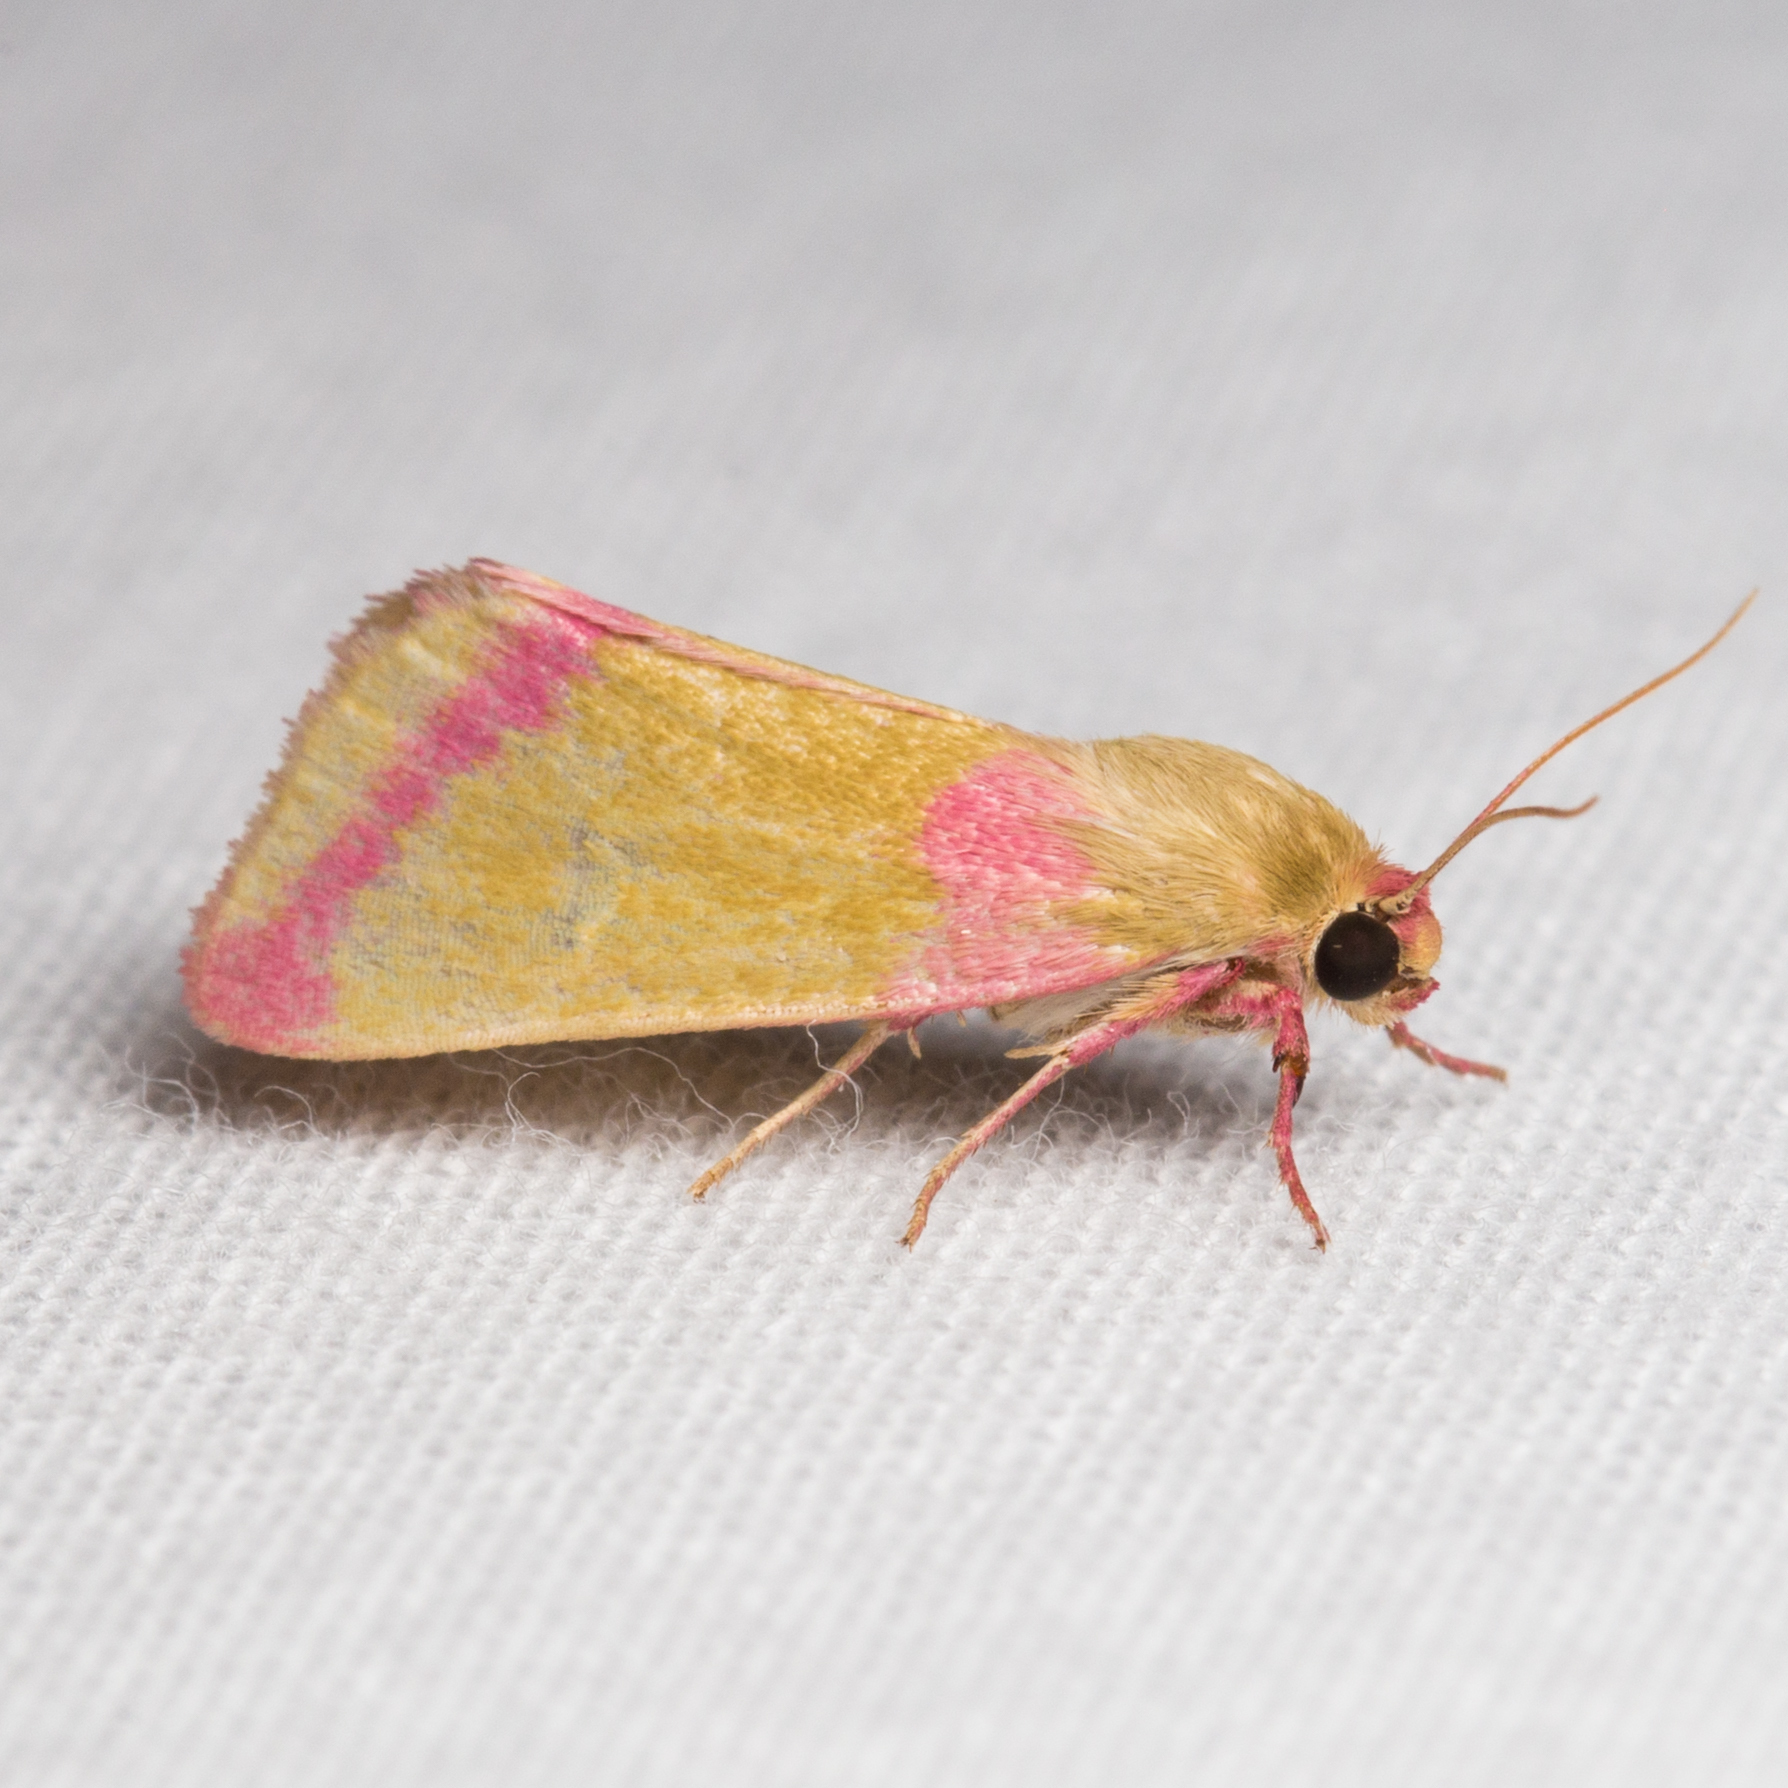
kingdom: Animalia
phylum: Arthropoda
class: Insecta
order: Lepidoptera
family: Noctuidae
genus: Heliocheilus
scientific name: Heliocheilus toralis
